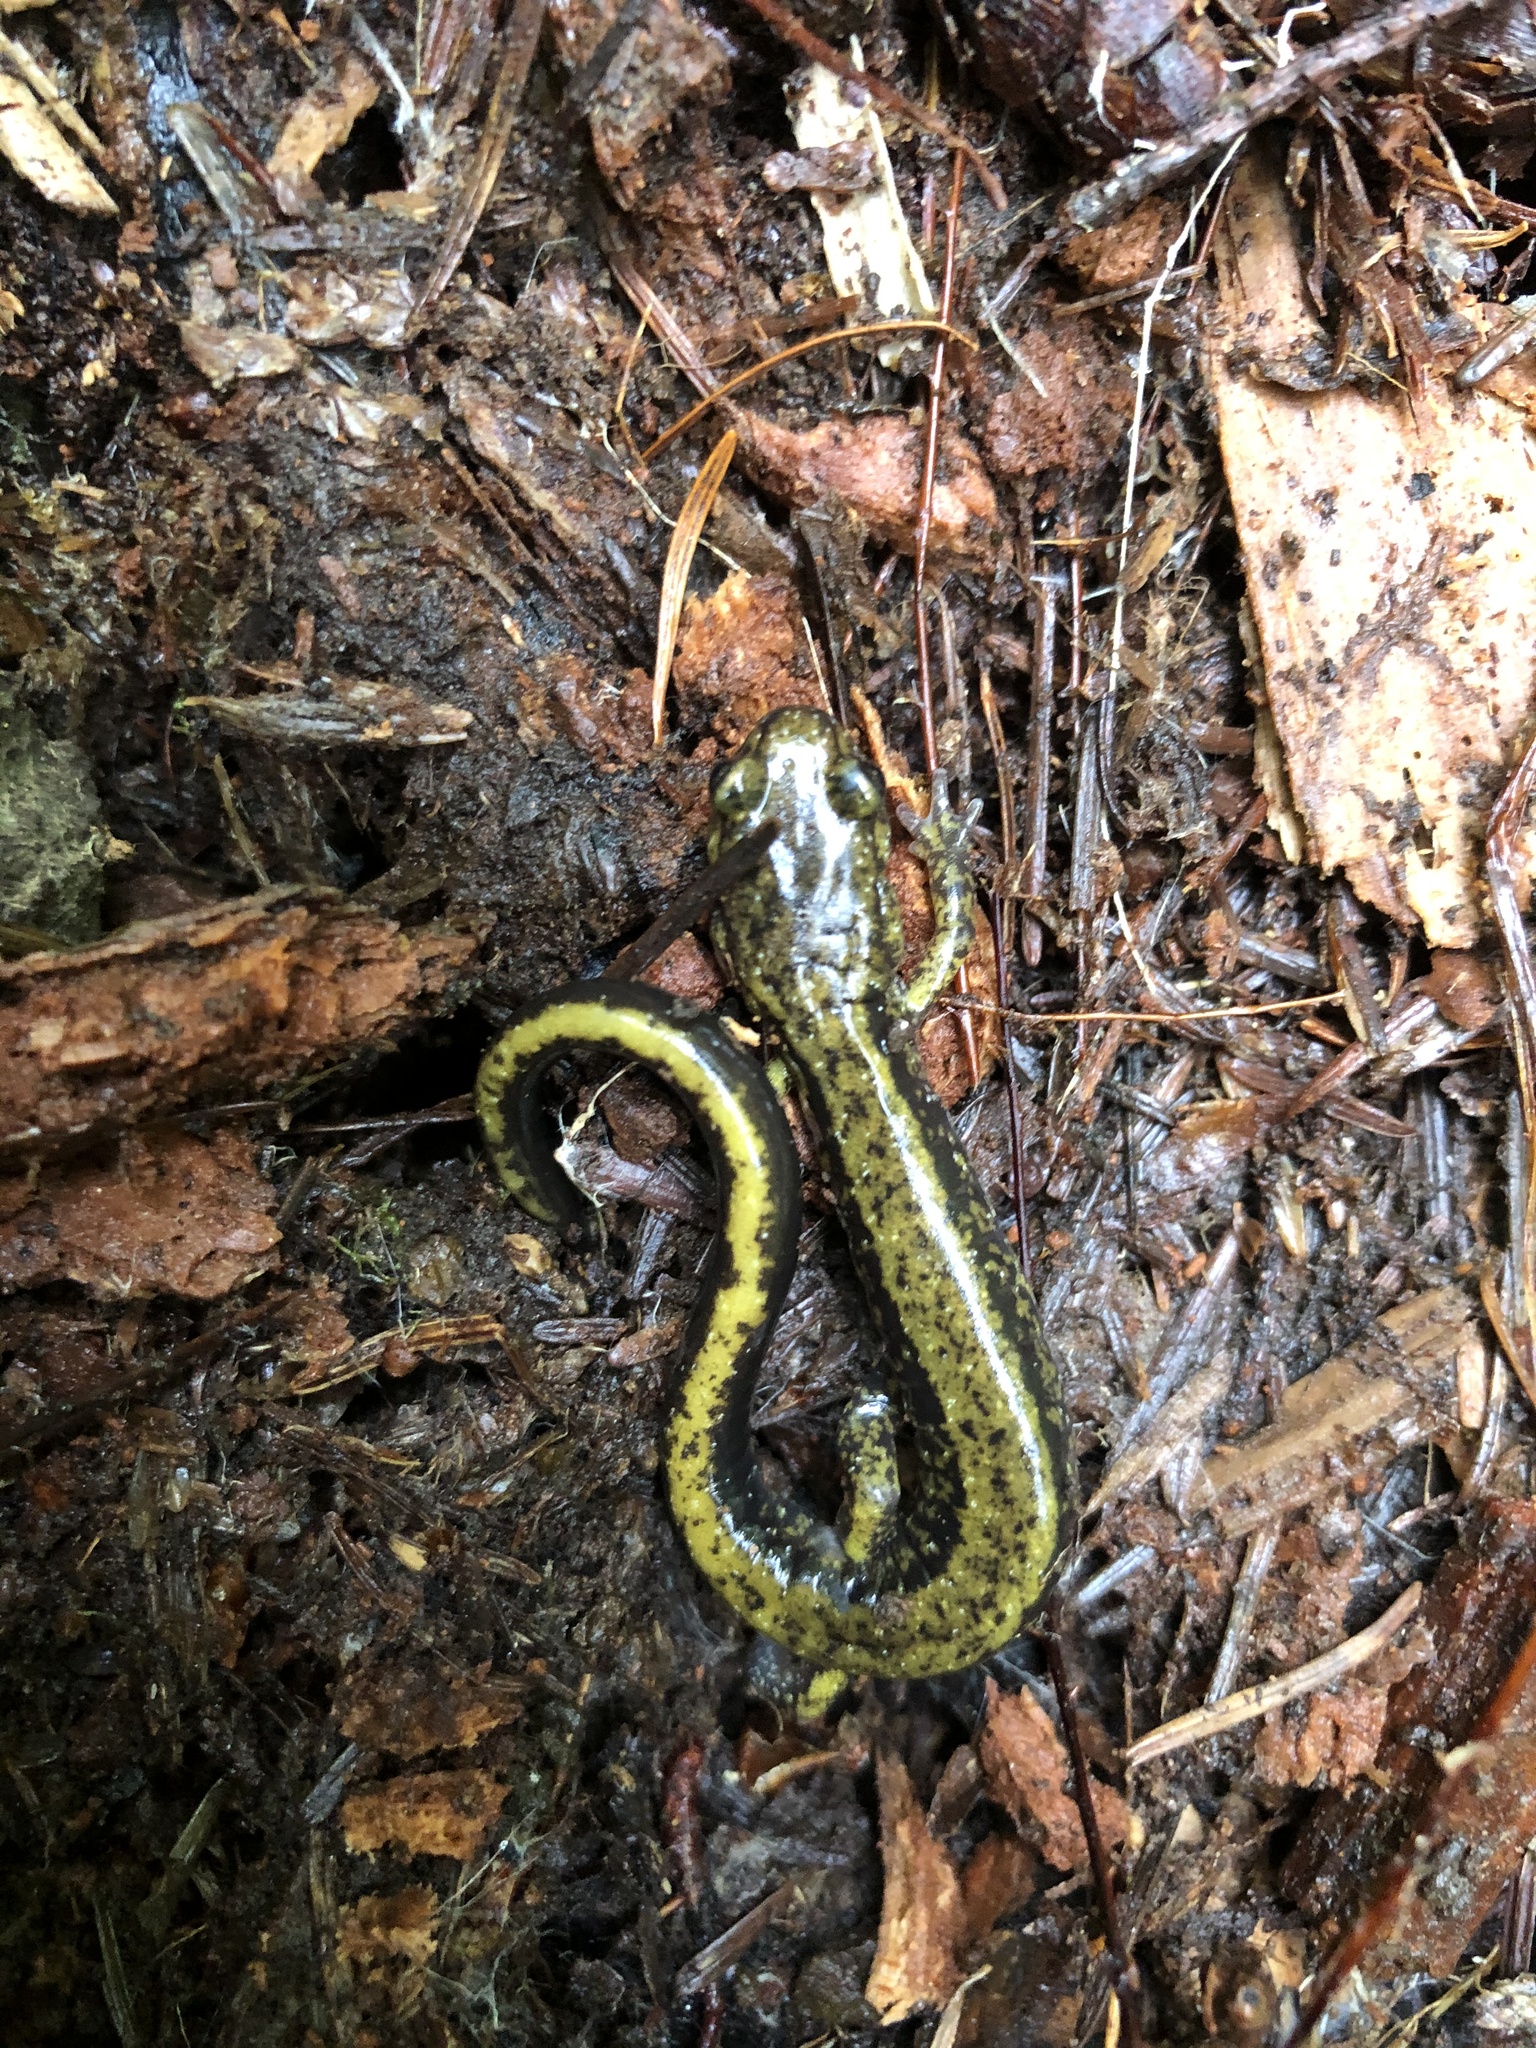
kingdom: Animalia
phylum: Chordata
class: Amphibia
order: Caudata
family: Plethodontidae
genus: Plethodon
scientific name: Plethodon dunni
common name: Dunn's salamander
